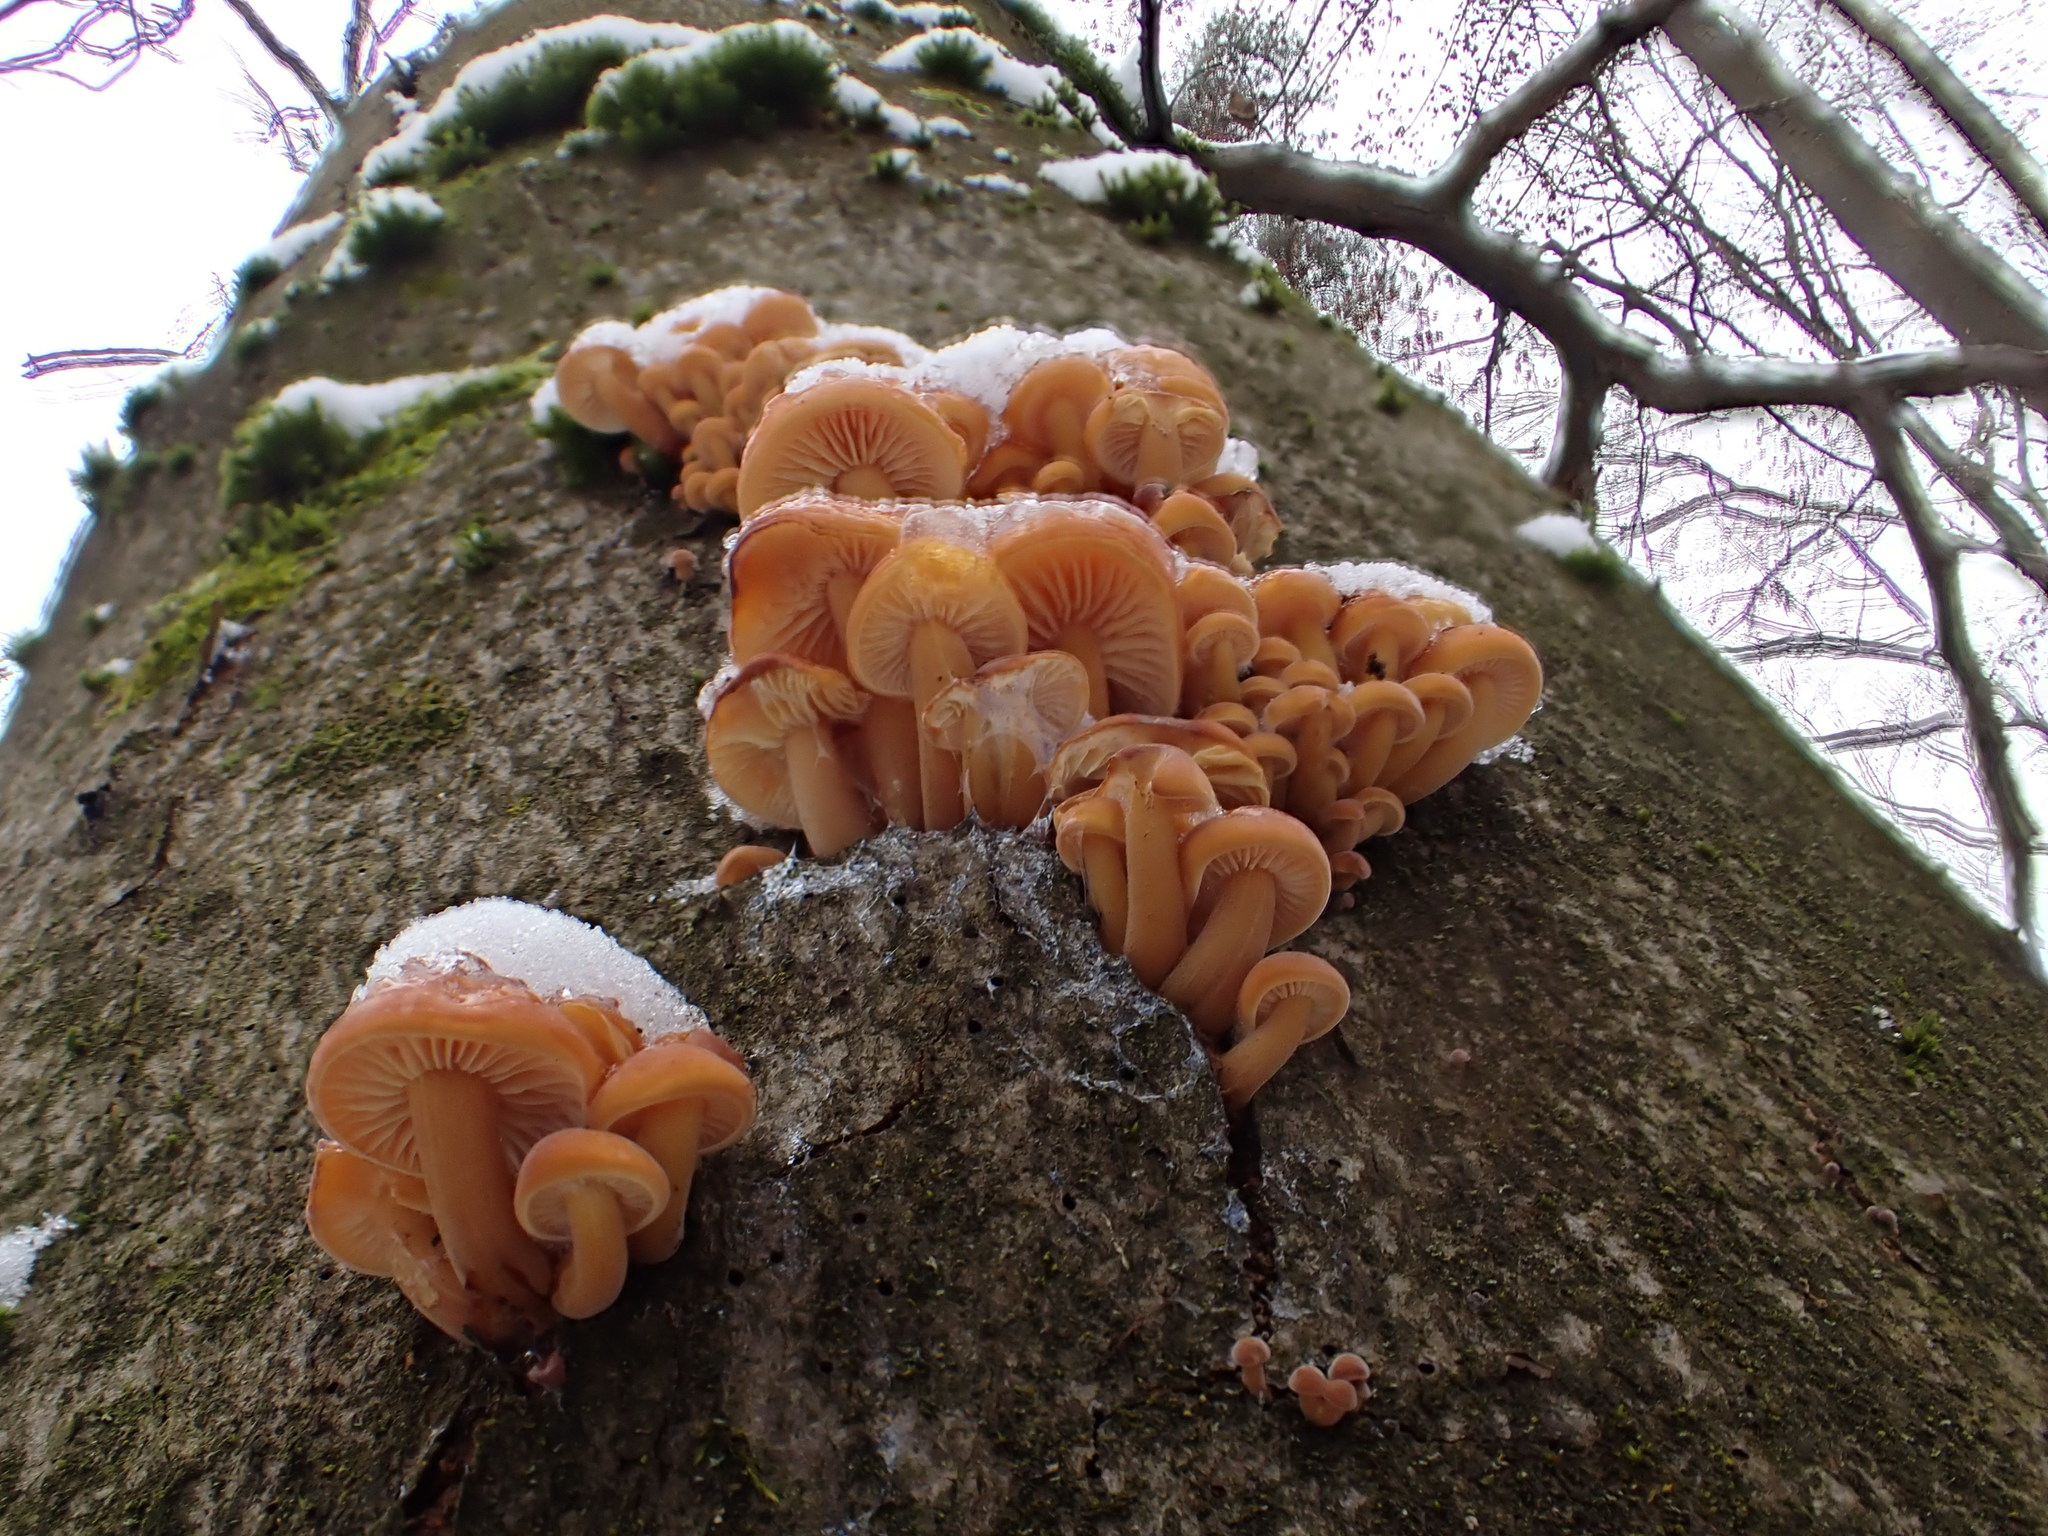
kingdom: Fungi
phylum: Basidiomycota
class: Agaricomycetes
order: Agaricales
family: Physalacriaceae
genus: Flammulina
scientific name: Flammulina
